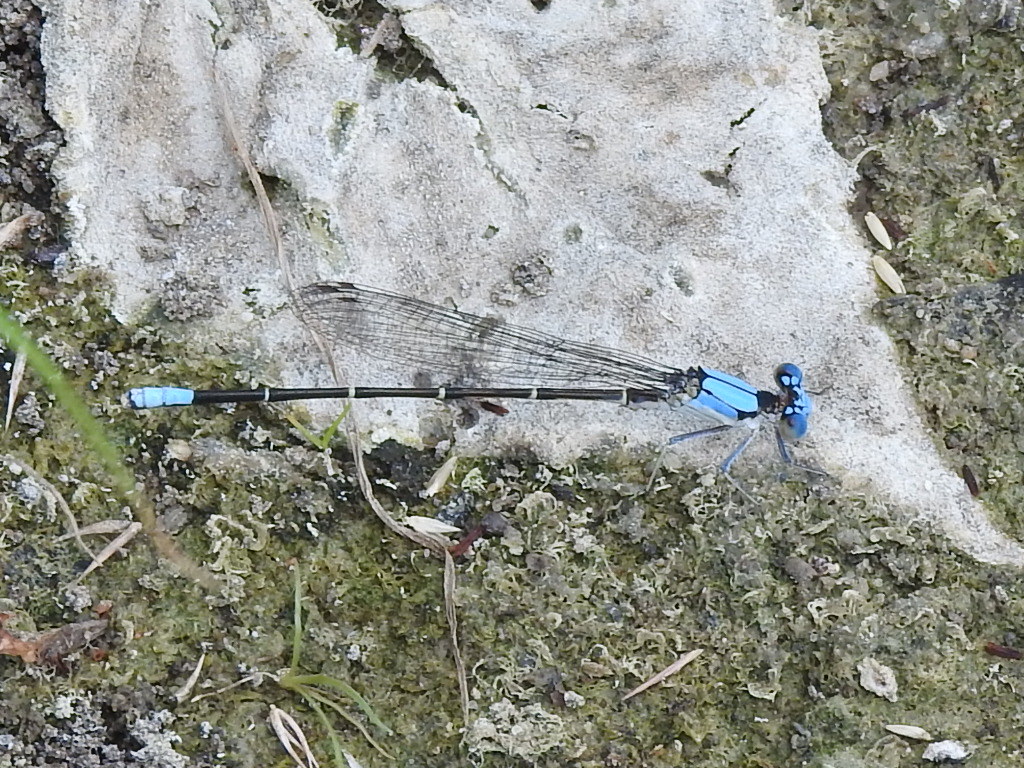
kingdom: Animalia
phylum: Arthropoda
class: Insecta
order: Odonata
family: Coenagrionidae
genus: Argia
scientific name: Argia apicalis
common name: Blue-fronted dancer
